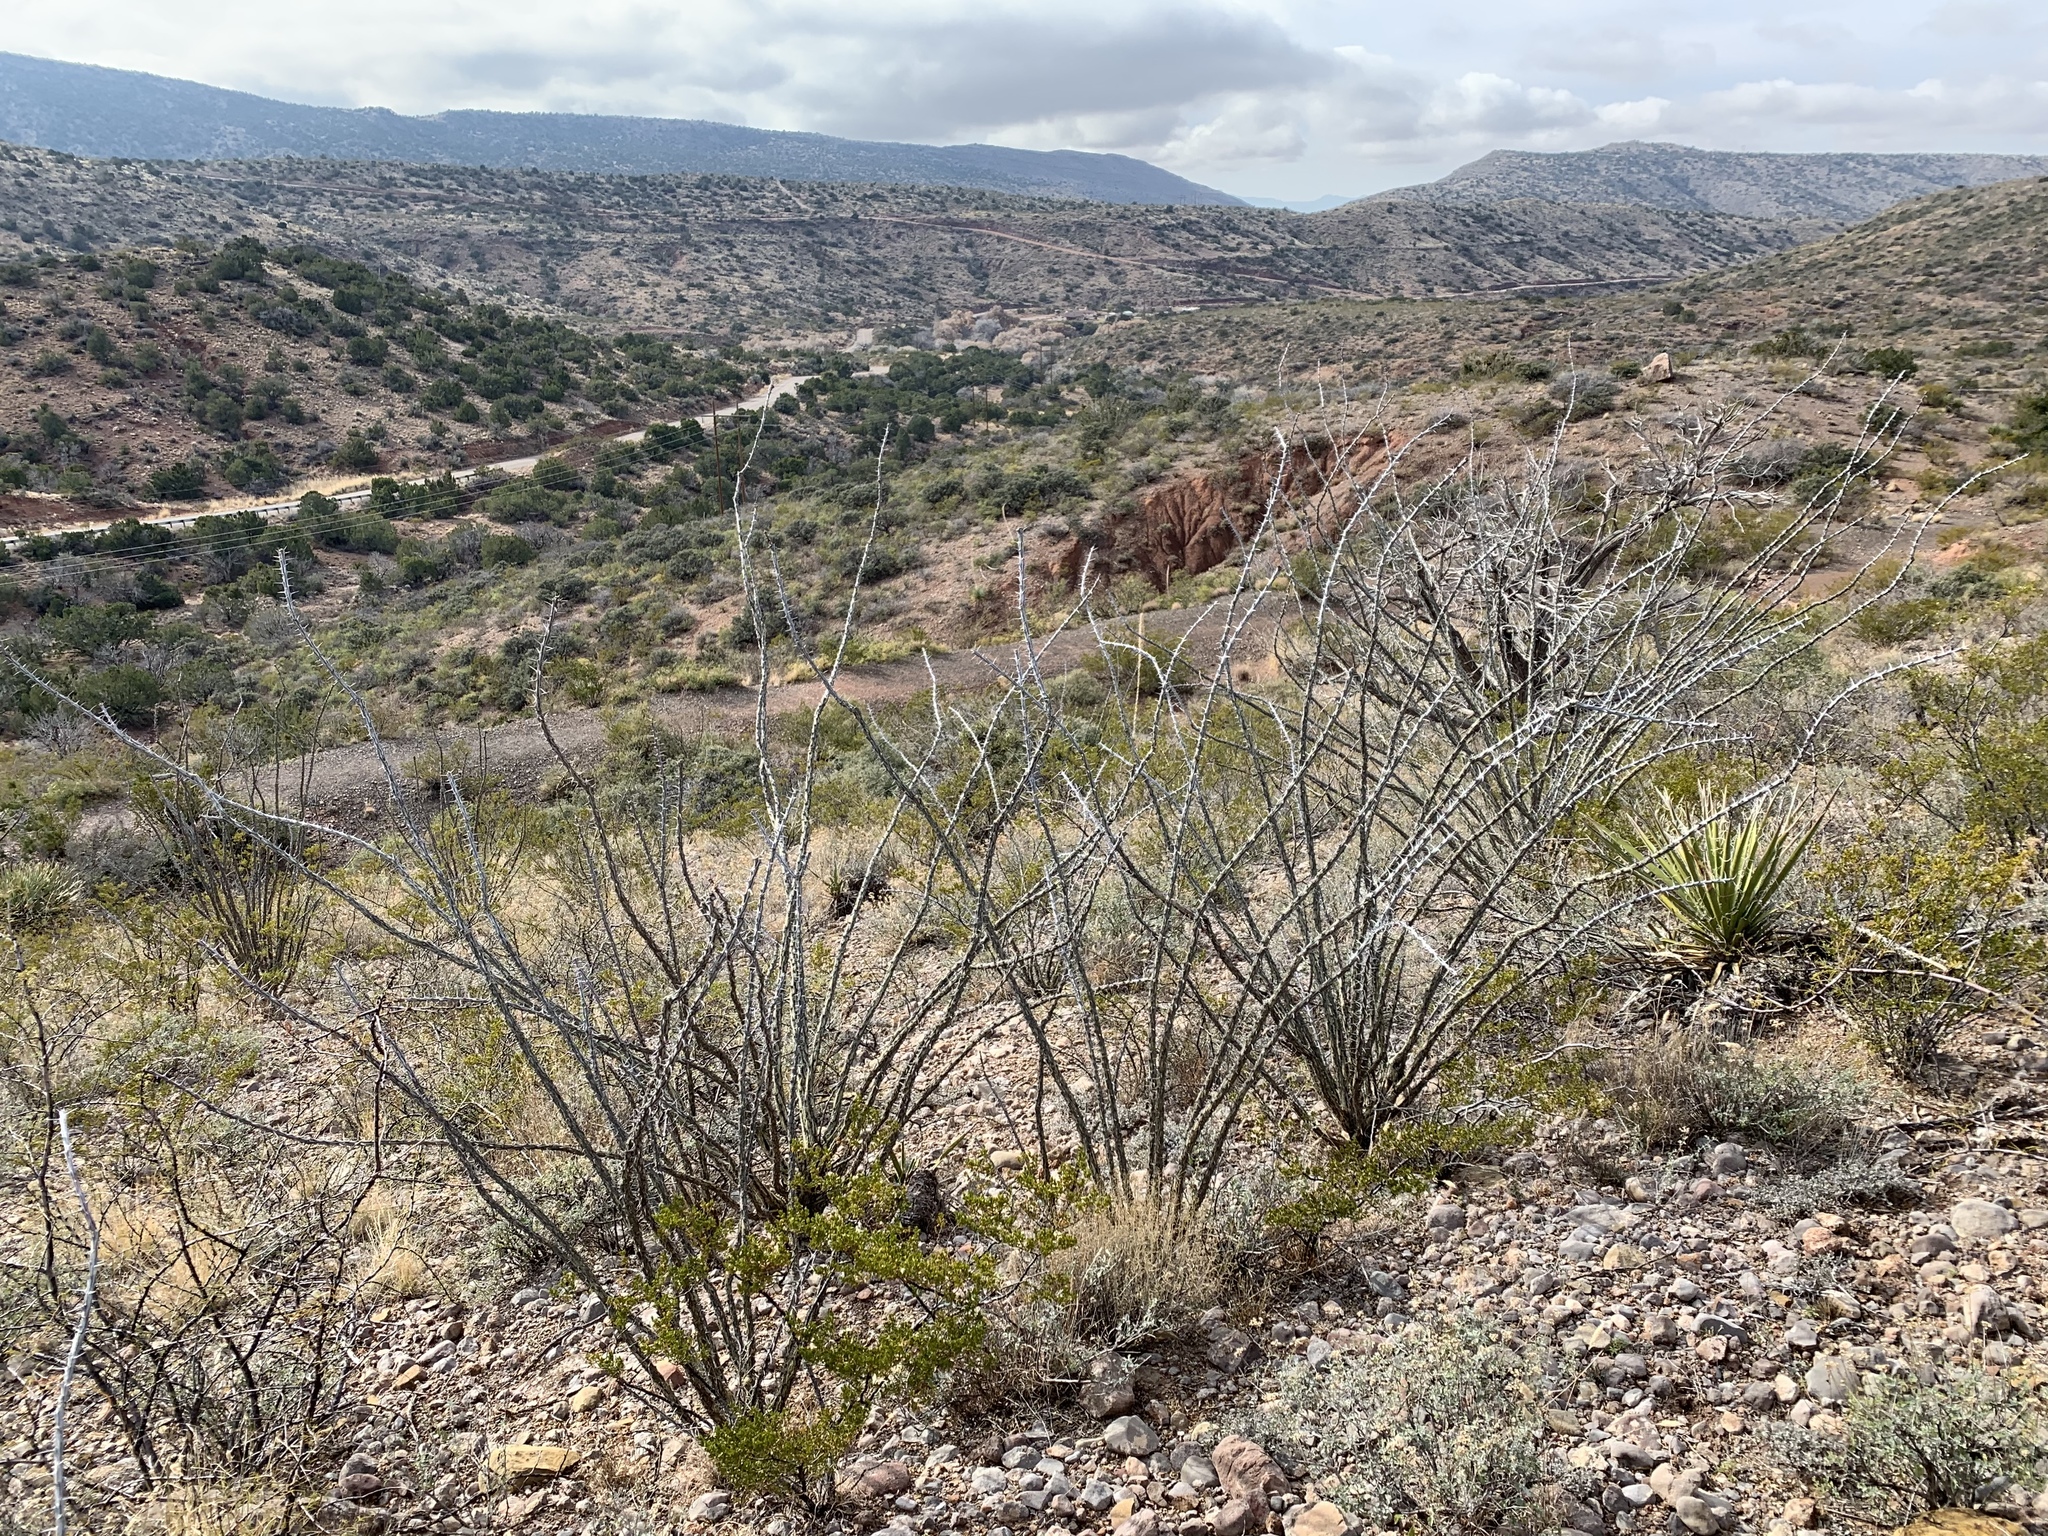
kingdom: Plantae
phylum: Tracheophyta
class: Magnoliopsida
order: Ericales
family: Fouquieriaceae
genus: Fouquieria
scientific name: Fouquieria splendens
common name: Vine-cactus
